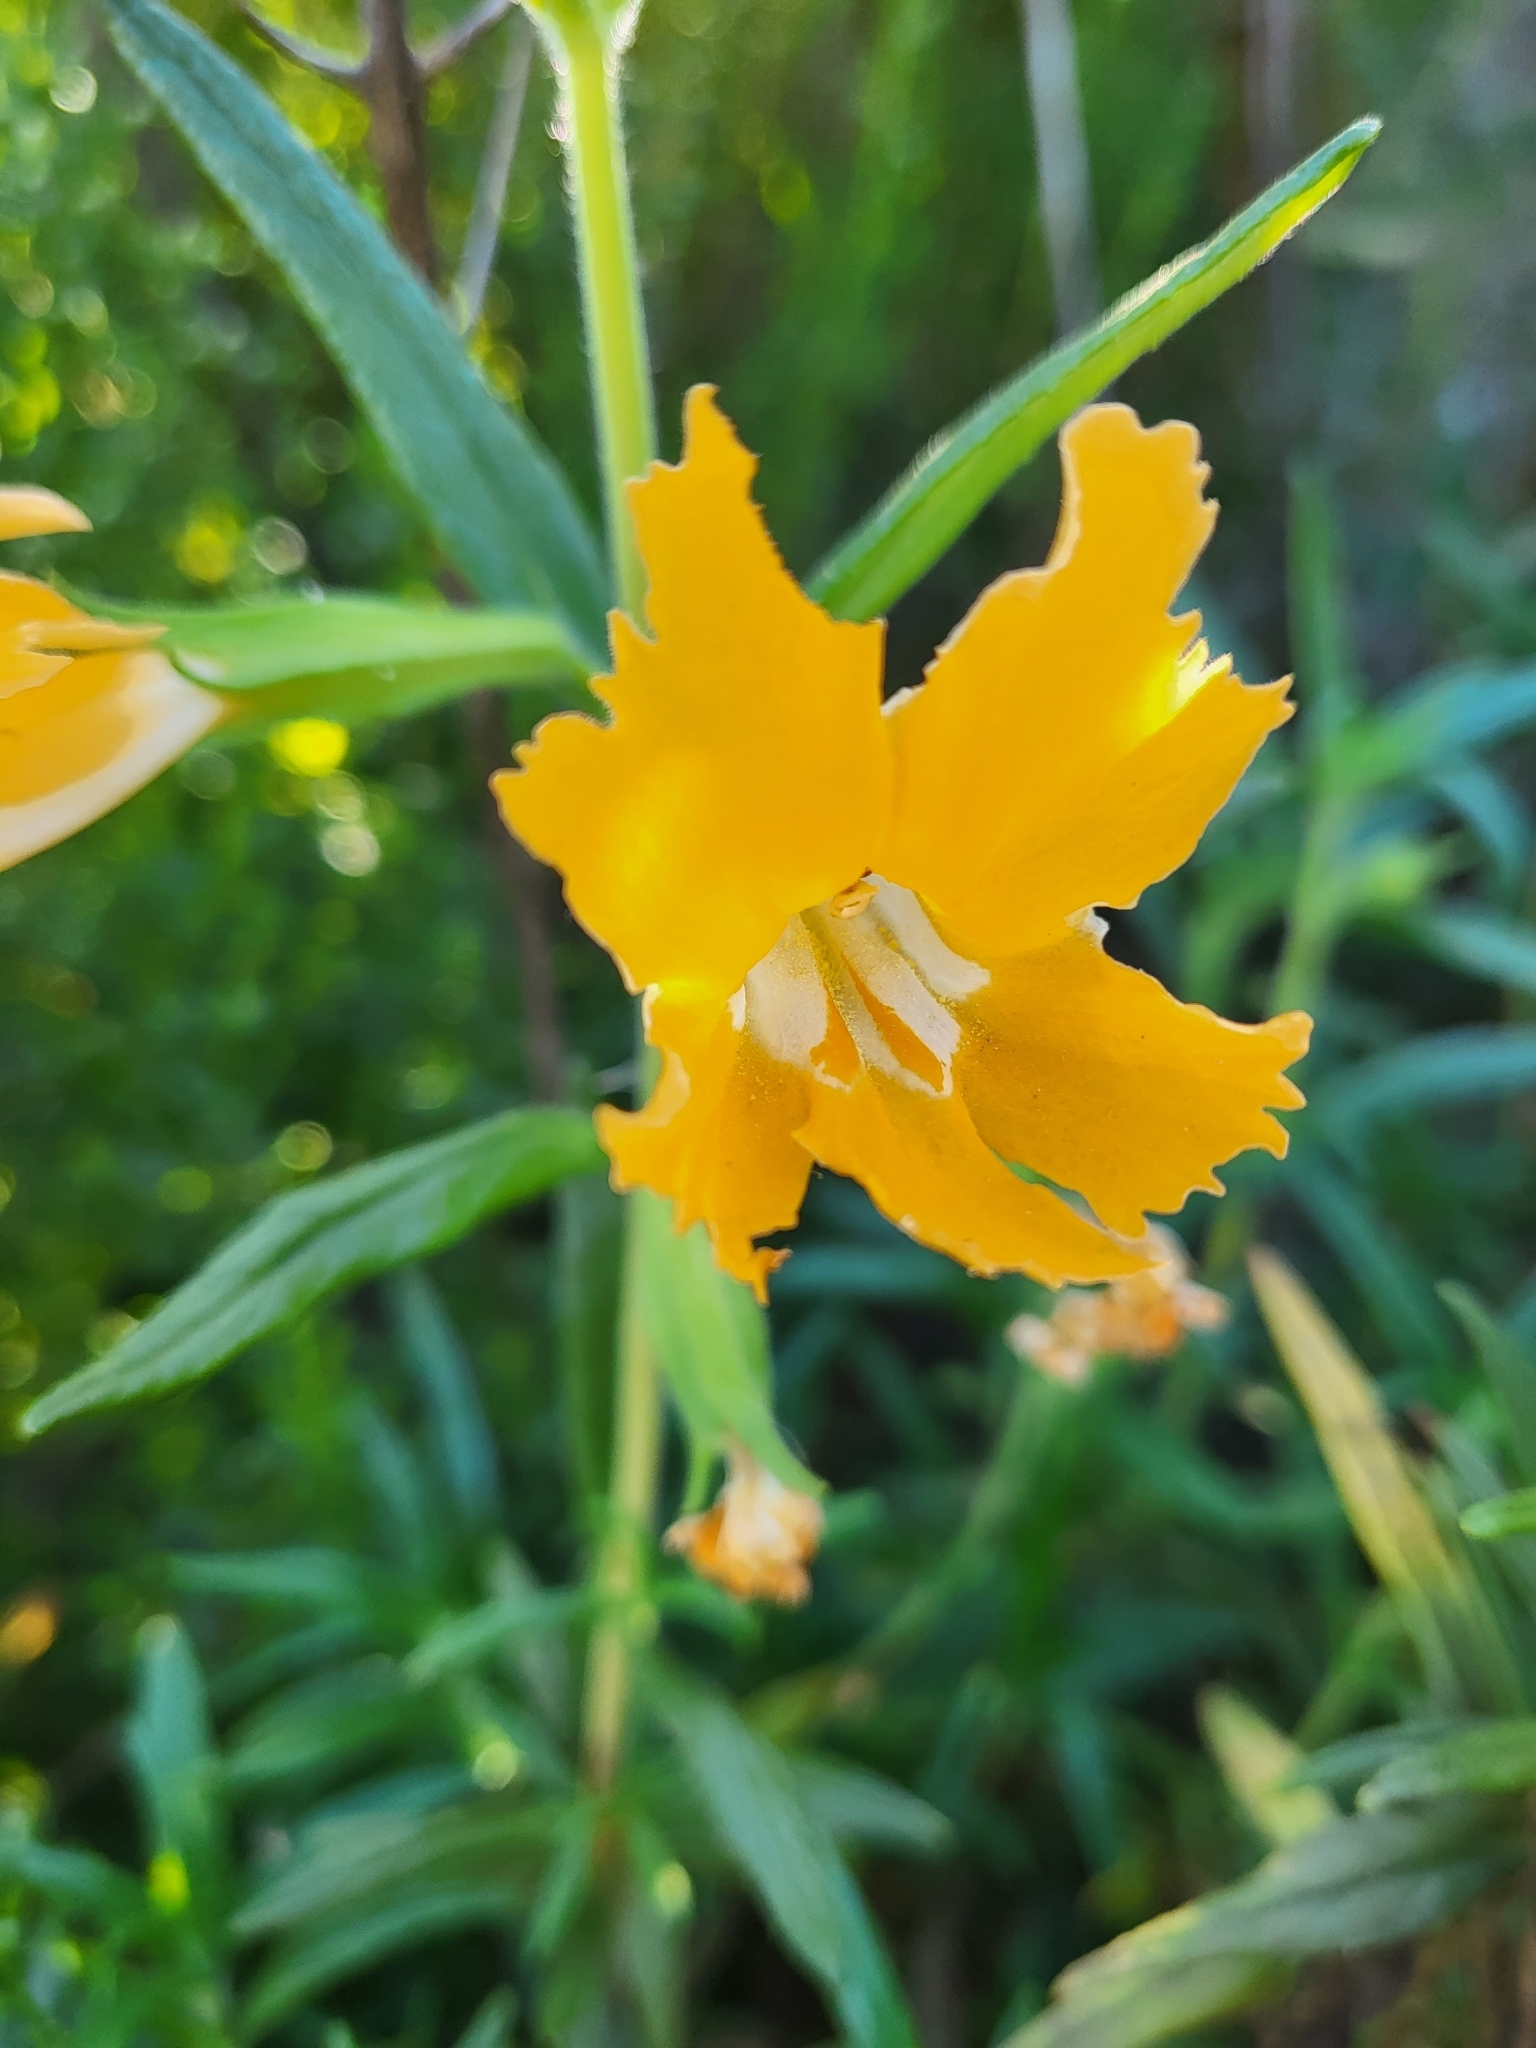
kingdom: Plantae
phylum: Tracheophyta
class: Magnoliopsida
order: Lamiales
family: Phrymaceae
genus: Diplacus
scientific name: Diplacus longiflorus
